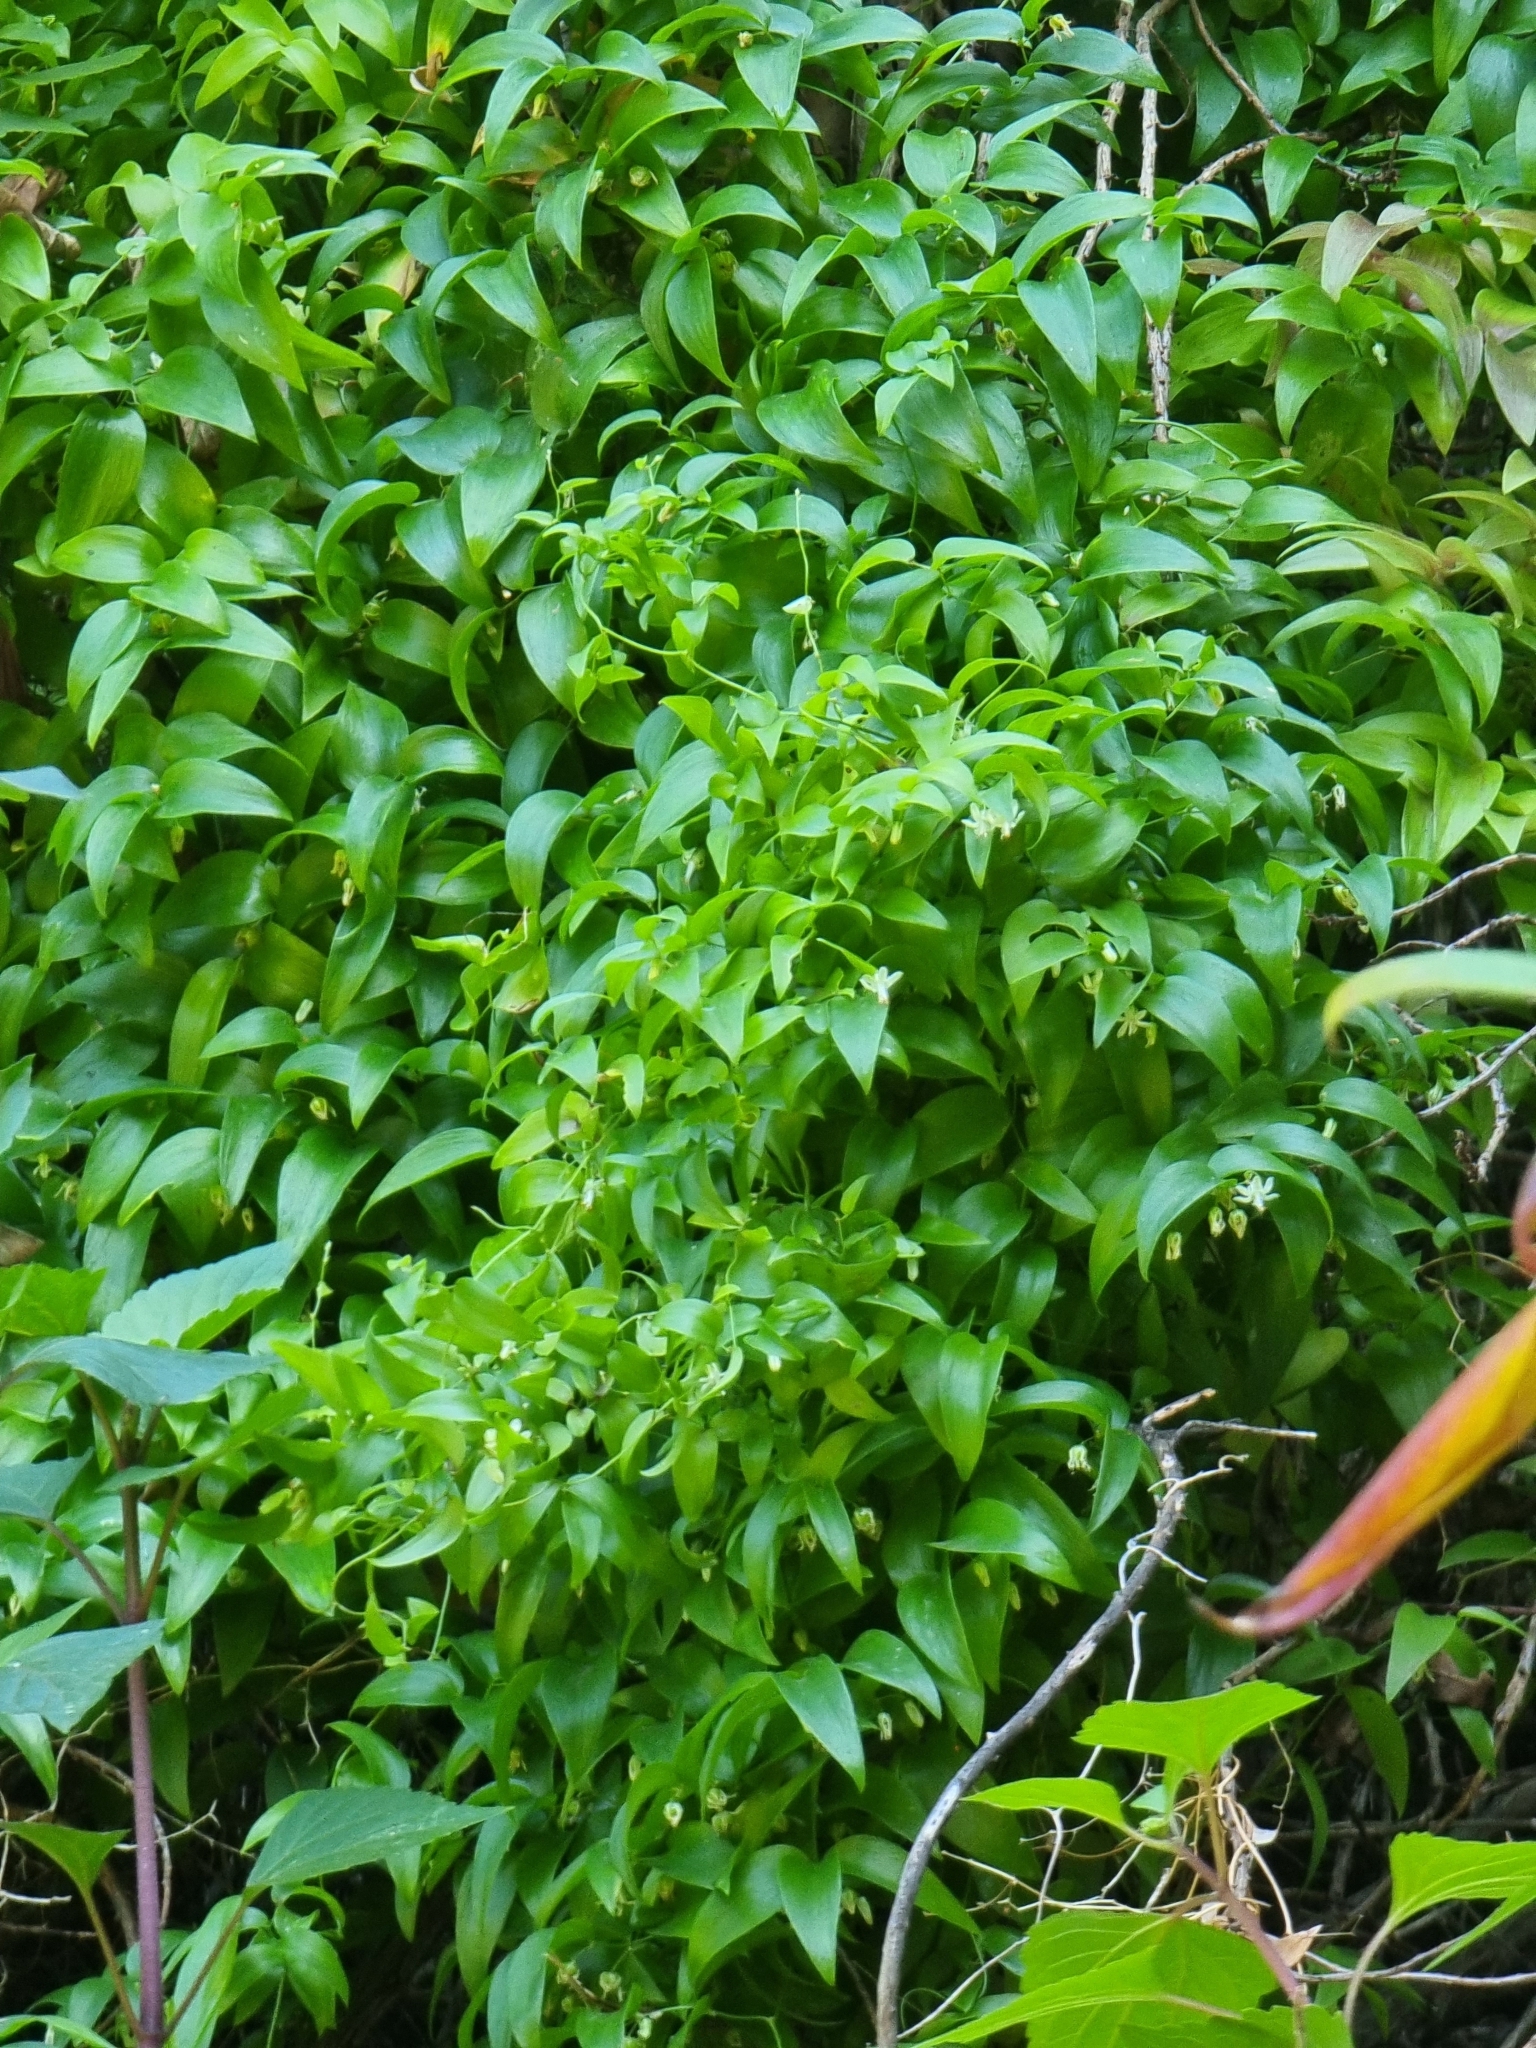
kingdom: Plantae
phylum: Tracheophyta
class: Liliopsida
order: Asparagales
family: Asparagaceae
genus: Asparagus
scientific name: Asparagus asparagoides
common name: African asparagus fern
